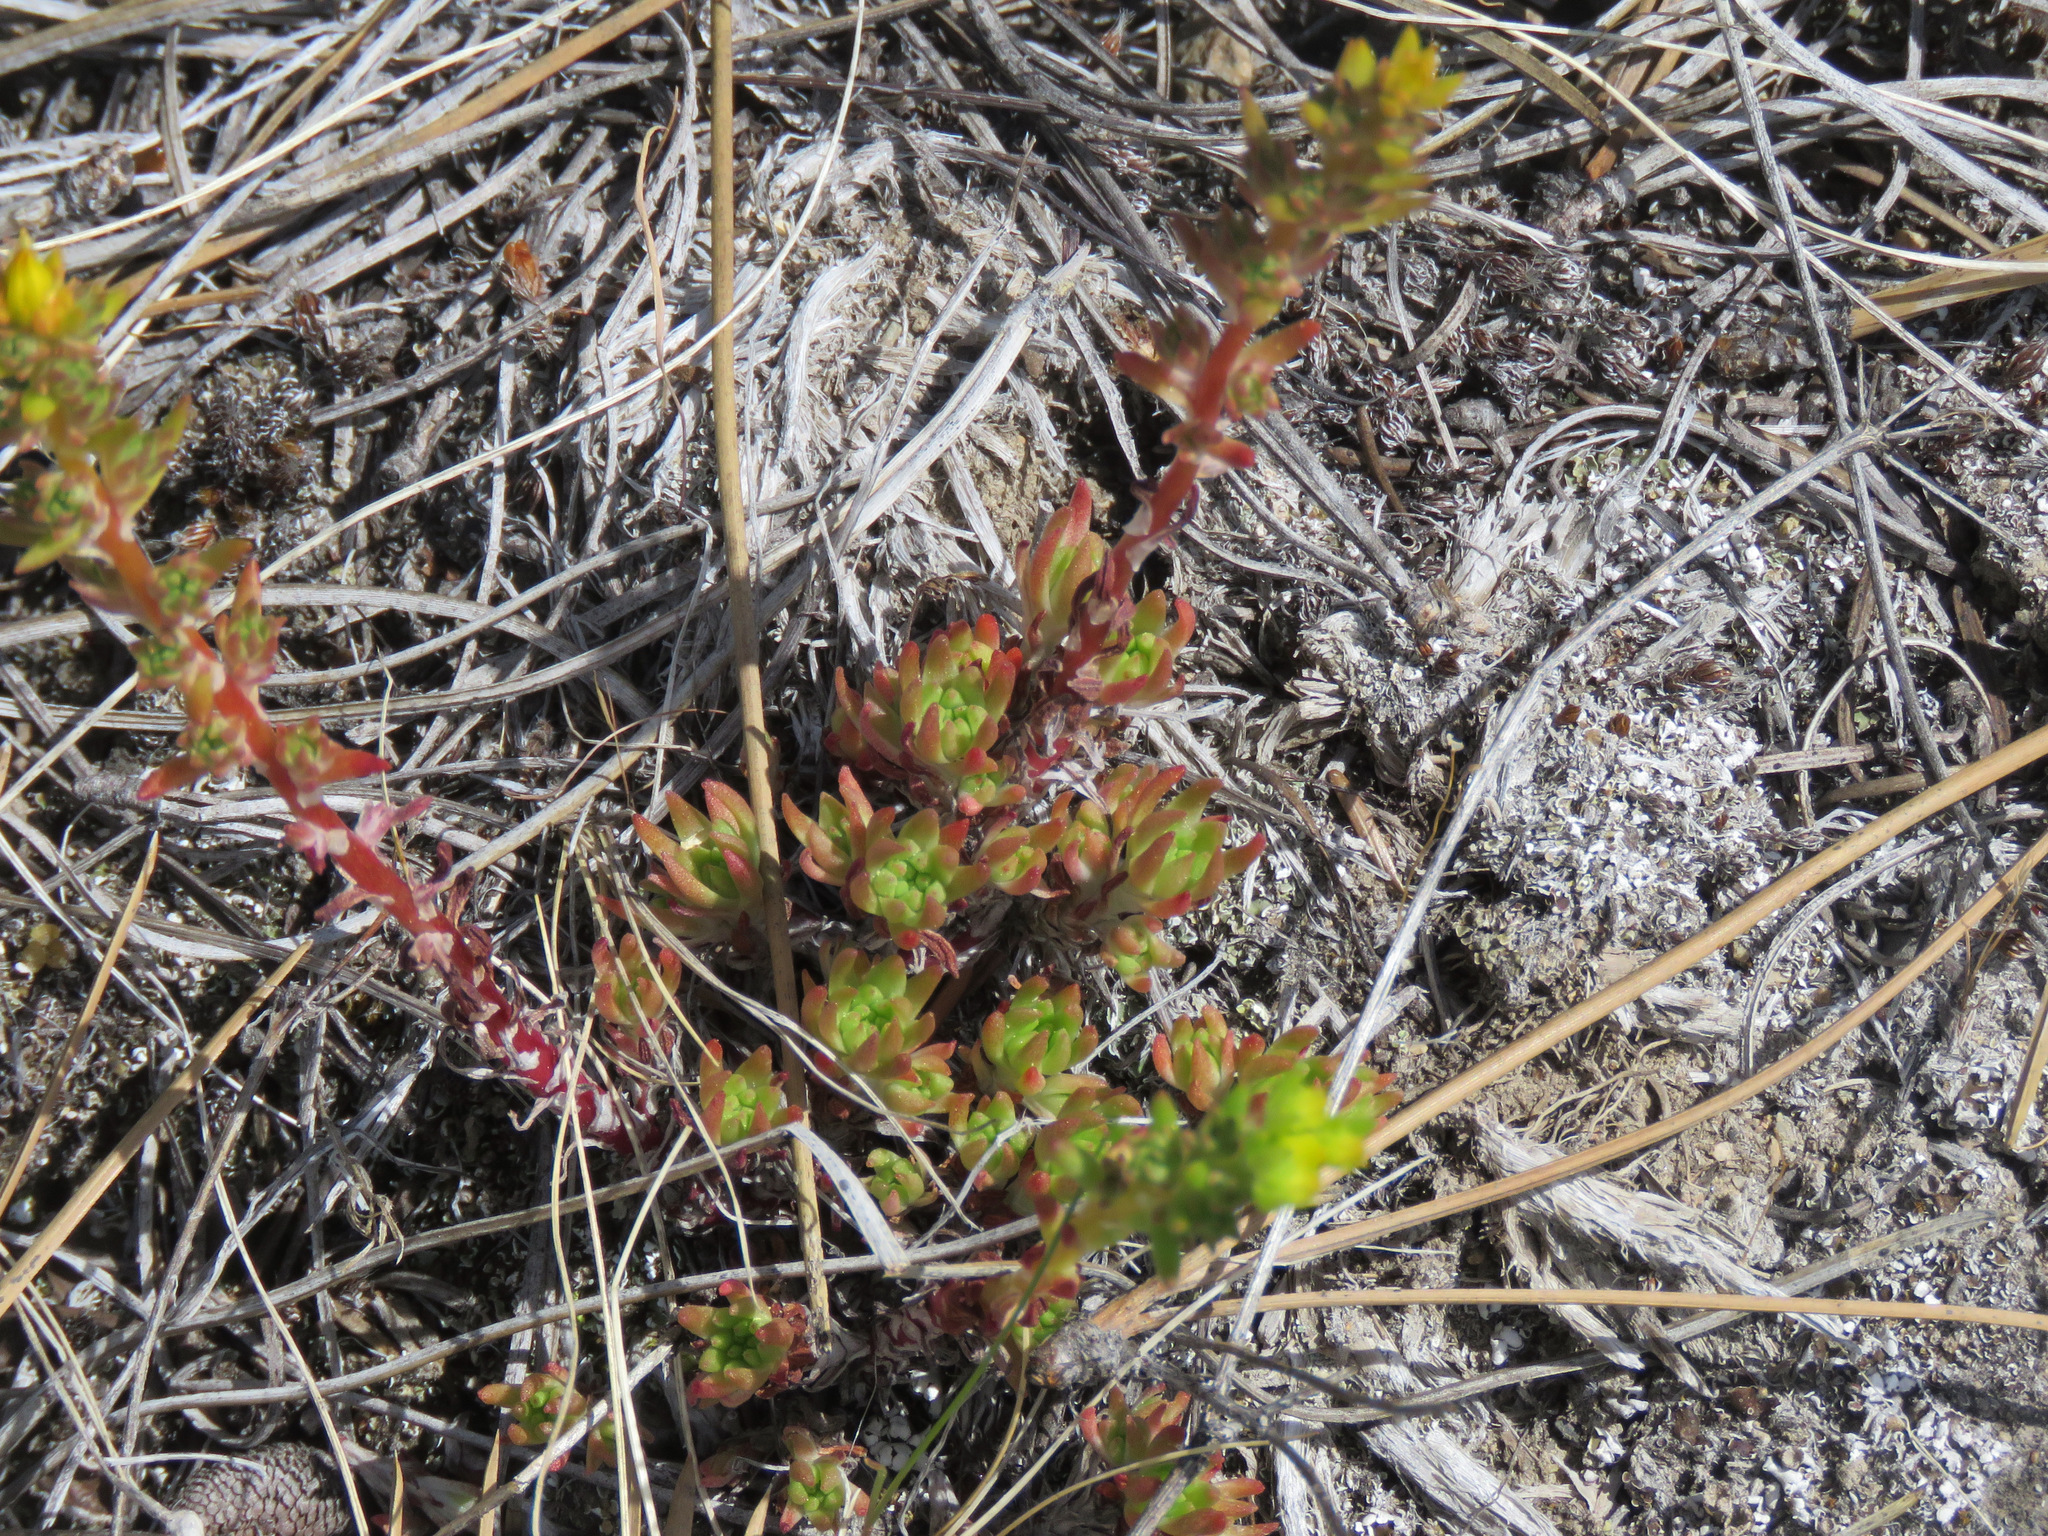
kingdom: Plantae
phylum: Tracheophyta
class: Magnoliopsida
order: Saxifragales
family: Crassulaceae
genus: Sedum
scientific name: Sedum stenopetalum
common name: Narrow-petaled stonecrop
